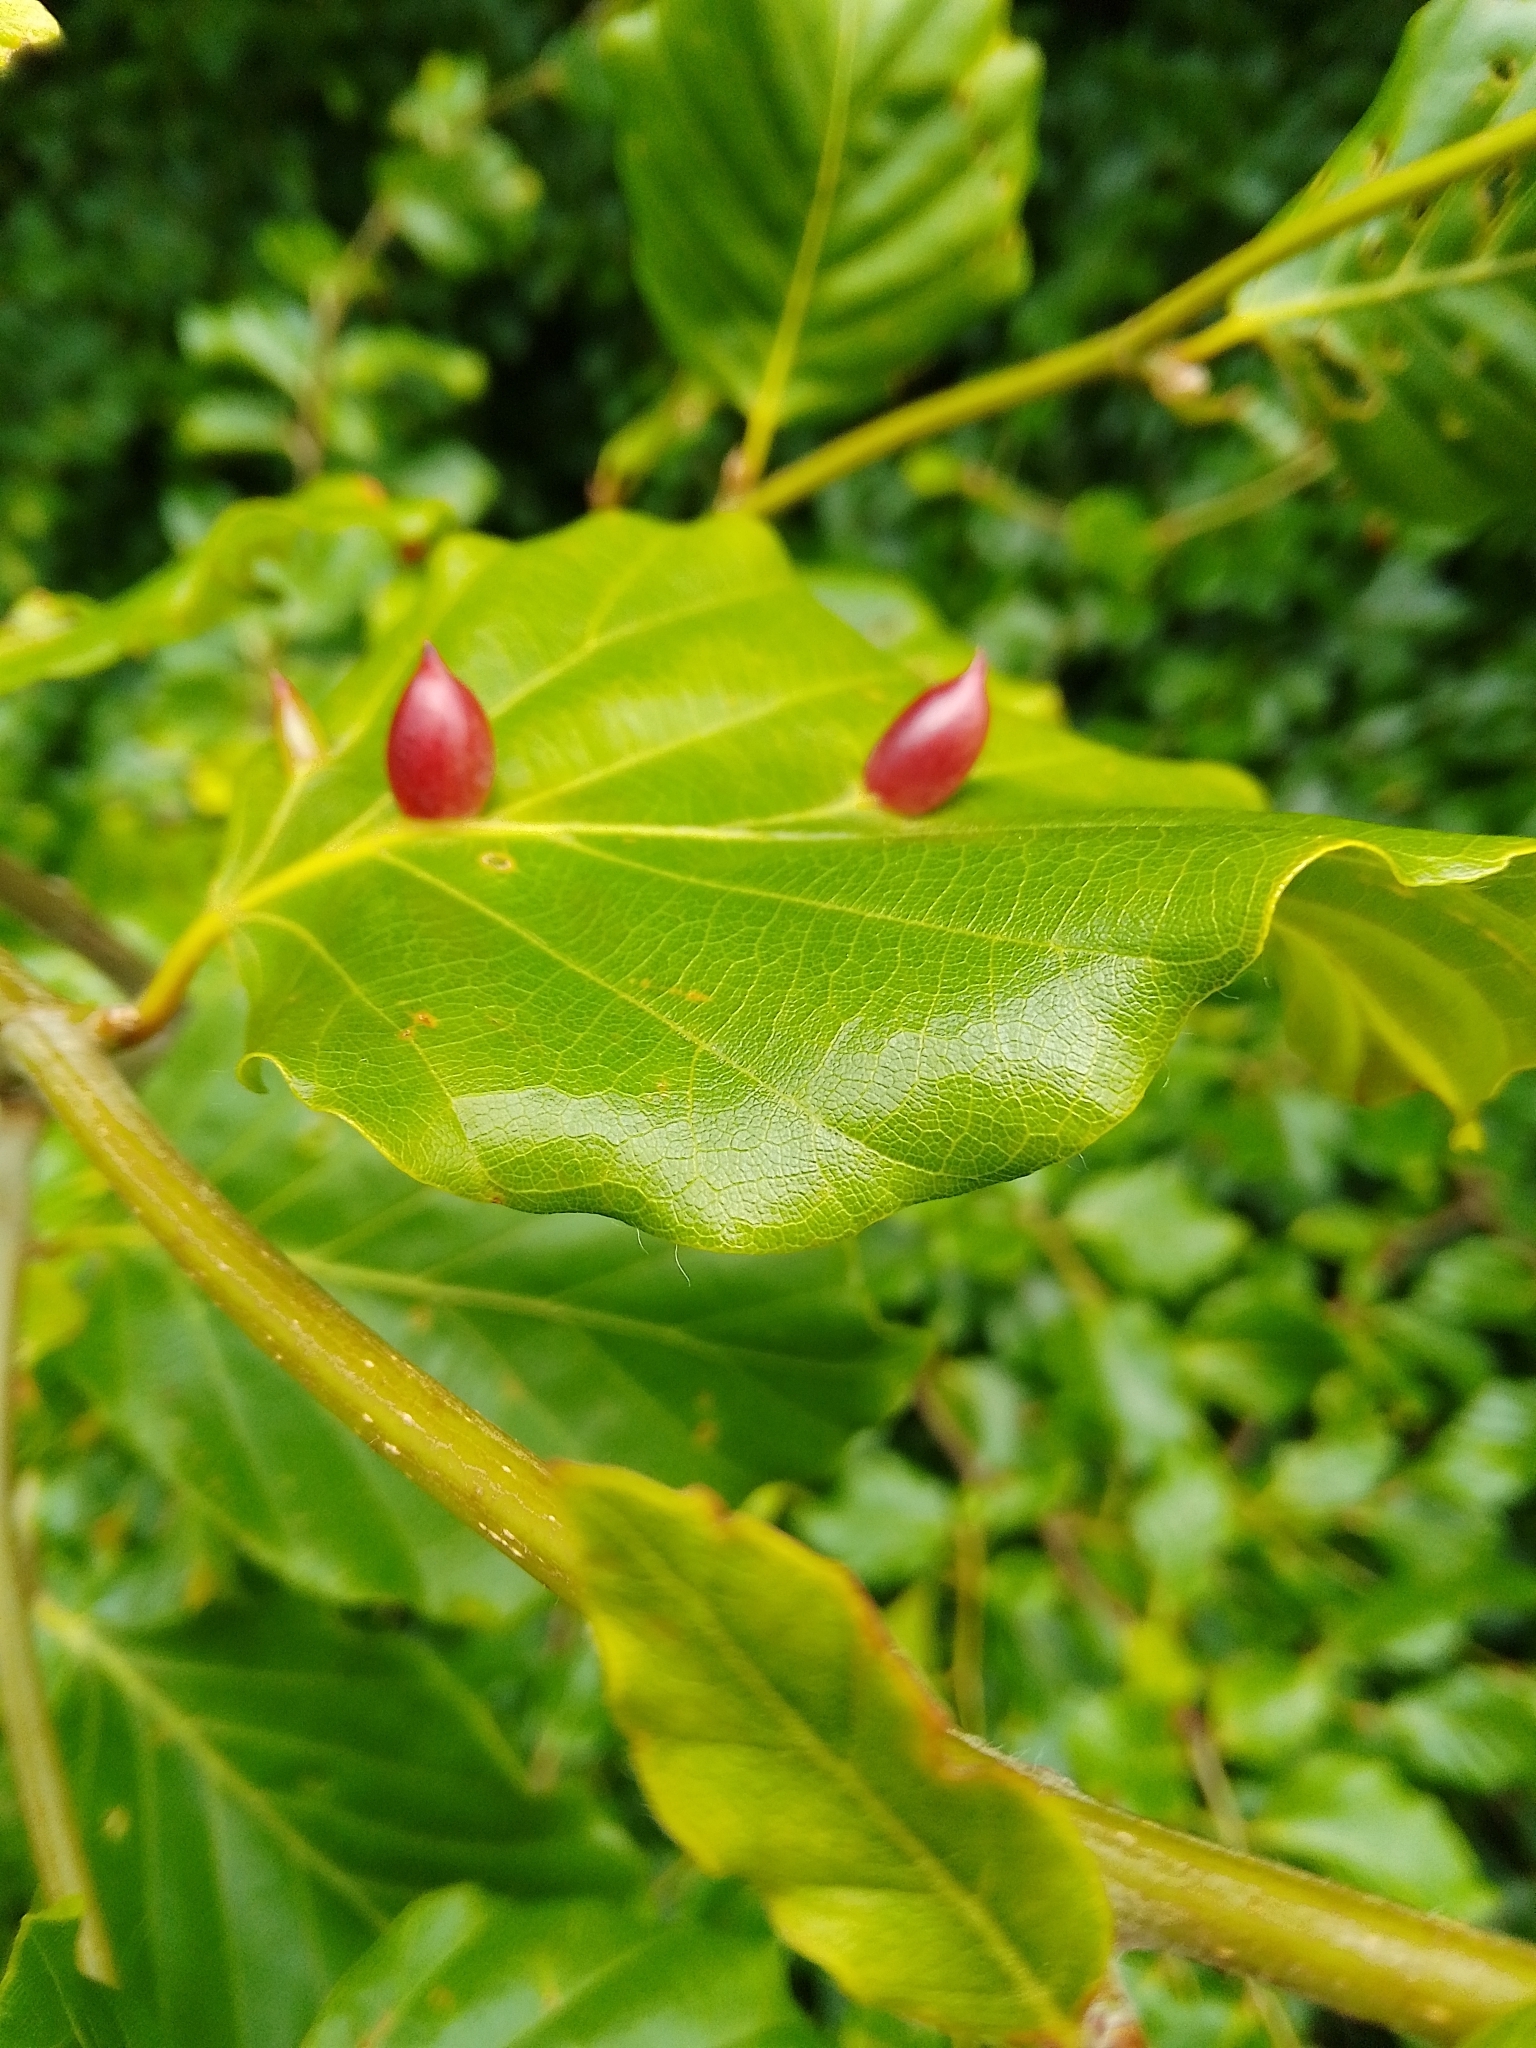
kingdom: Animalia
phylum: Arthropoda
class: Insecta
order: Diptera
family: Cecidomyiidae
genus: Mikiola
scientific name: Mikiola fagi
